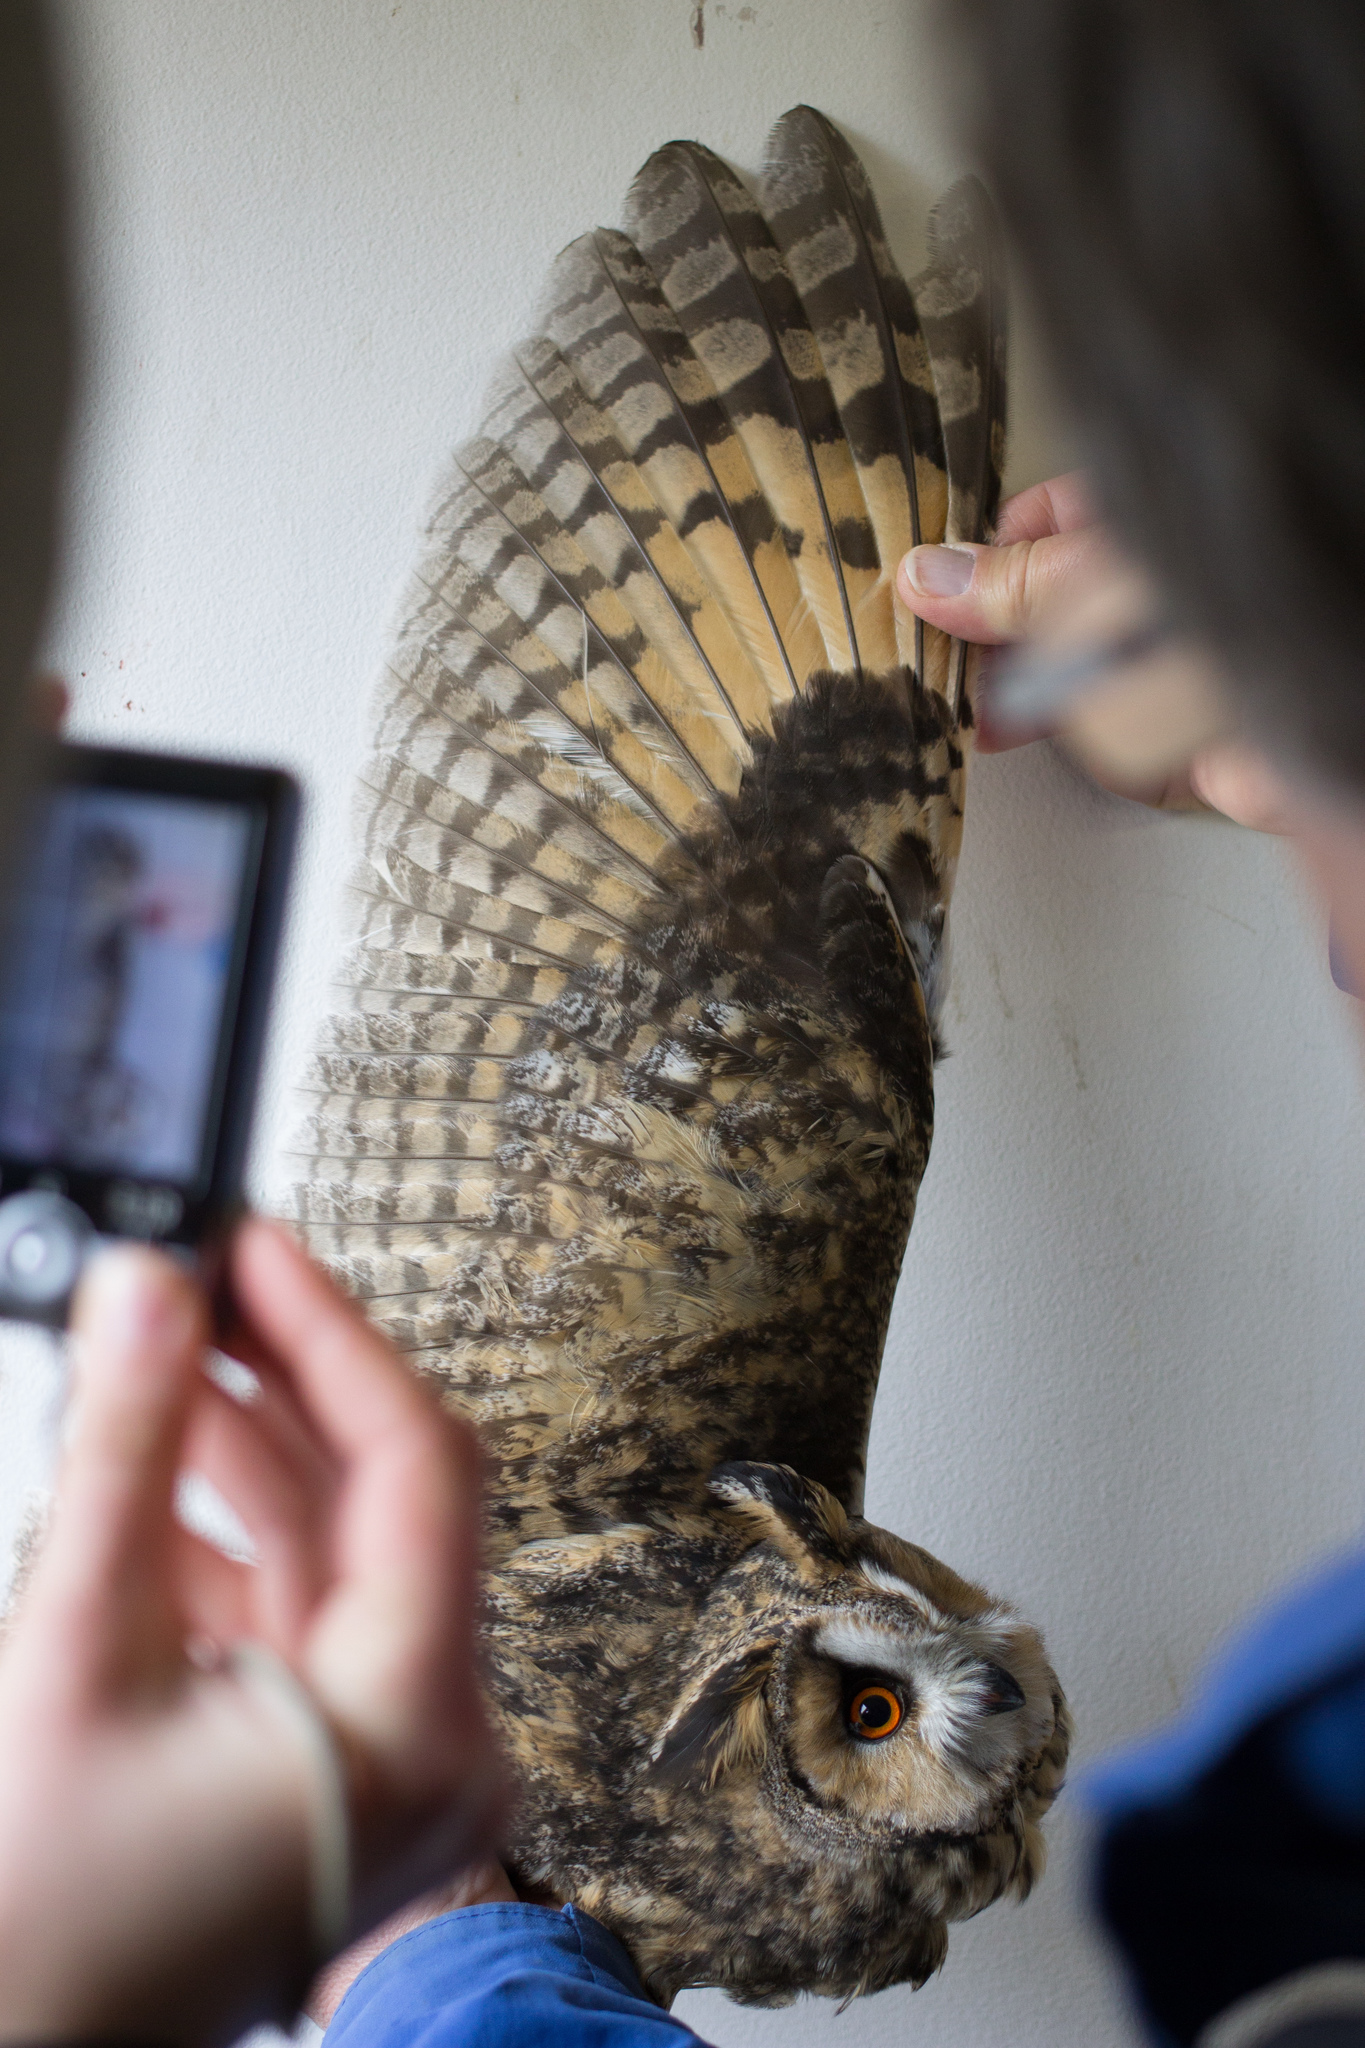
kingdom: Animalia
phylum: Chordata
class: Aves
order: Strigiformes
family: Strigidae
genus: Asio
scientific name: Asio otus
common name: Long-eared owl
